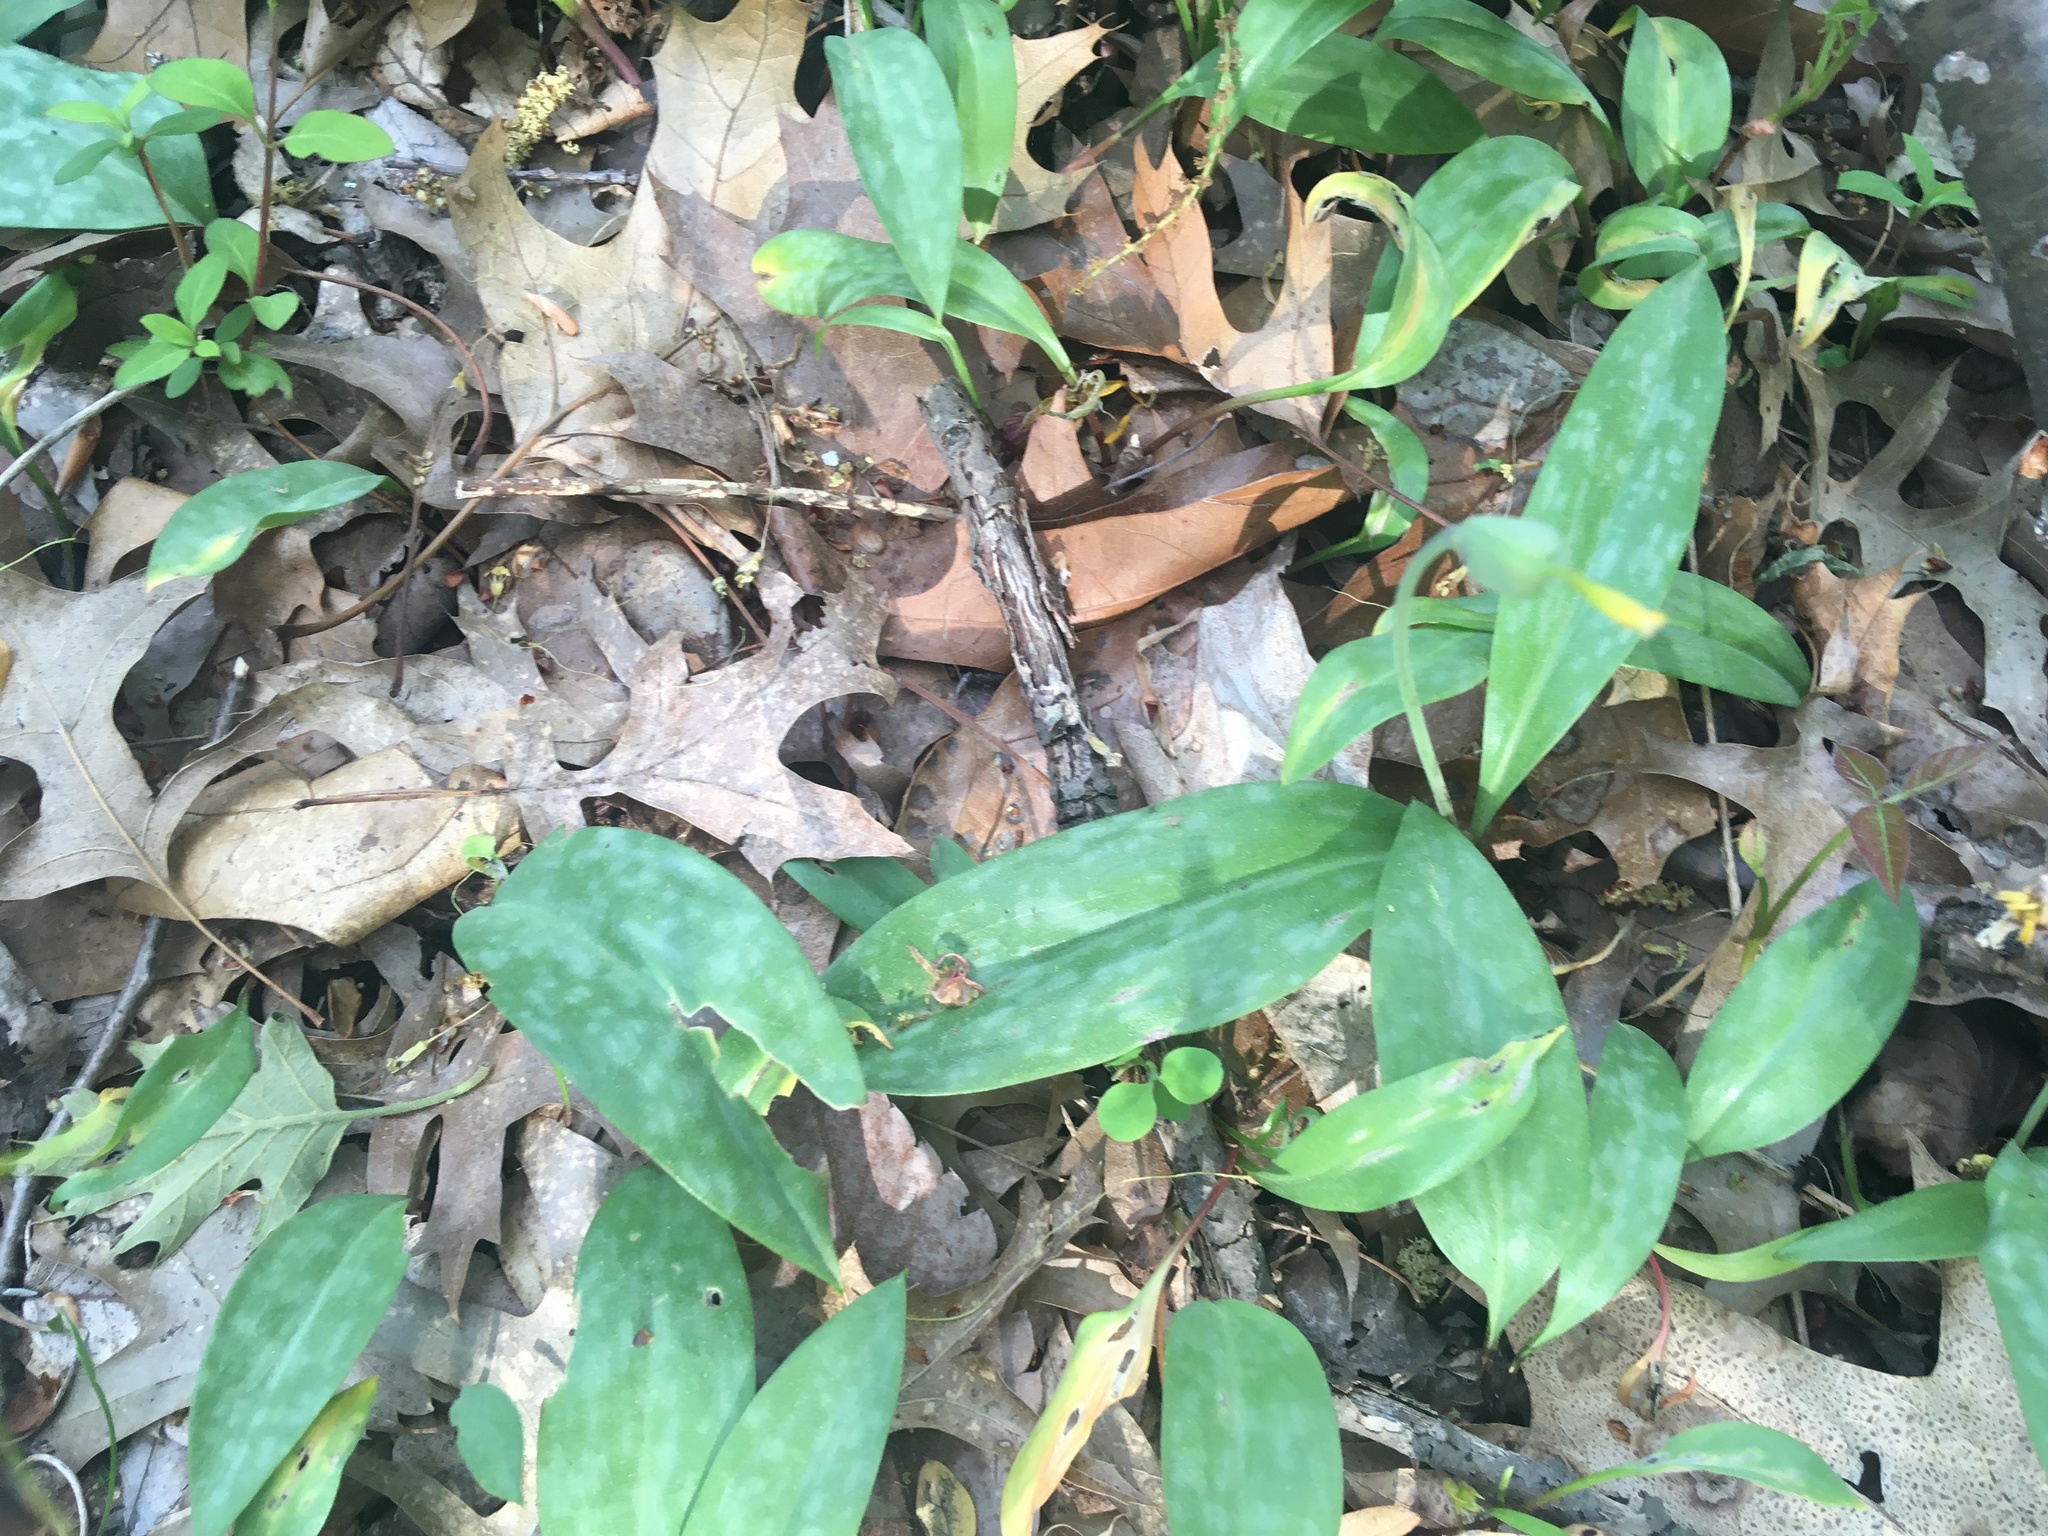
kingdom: Plantae
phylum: Tracheophyta
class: Liliopsida
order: Liliales
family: Liliaceae
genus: Erythronium
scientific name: Erythronium americanum
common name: Yellow adder's-tongue
